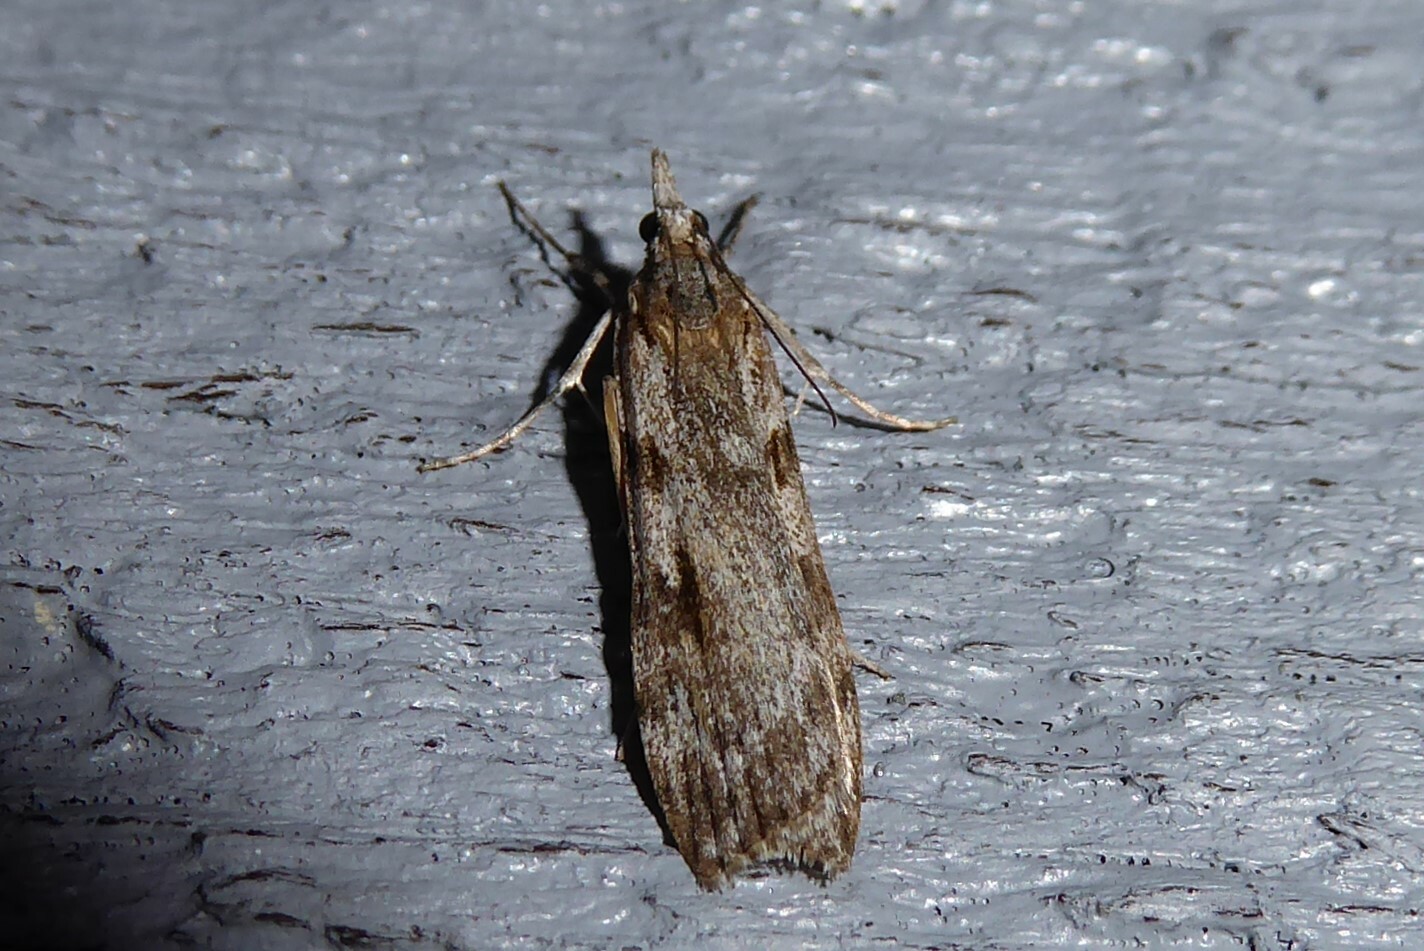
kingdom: Animalia
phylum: Arthropoda
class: Insecta
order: Lepidoptera
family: Crambidae
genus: Scoparia
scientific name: Scoparia halopis
